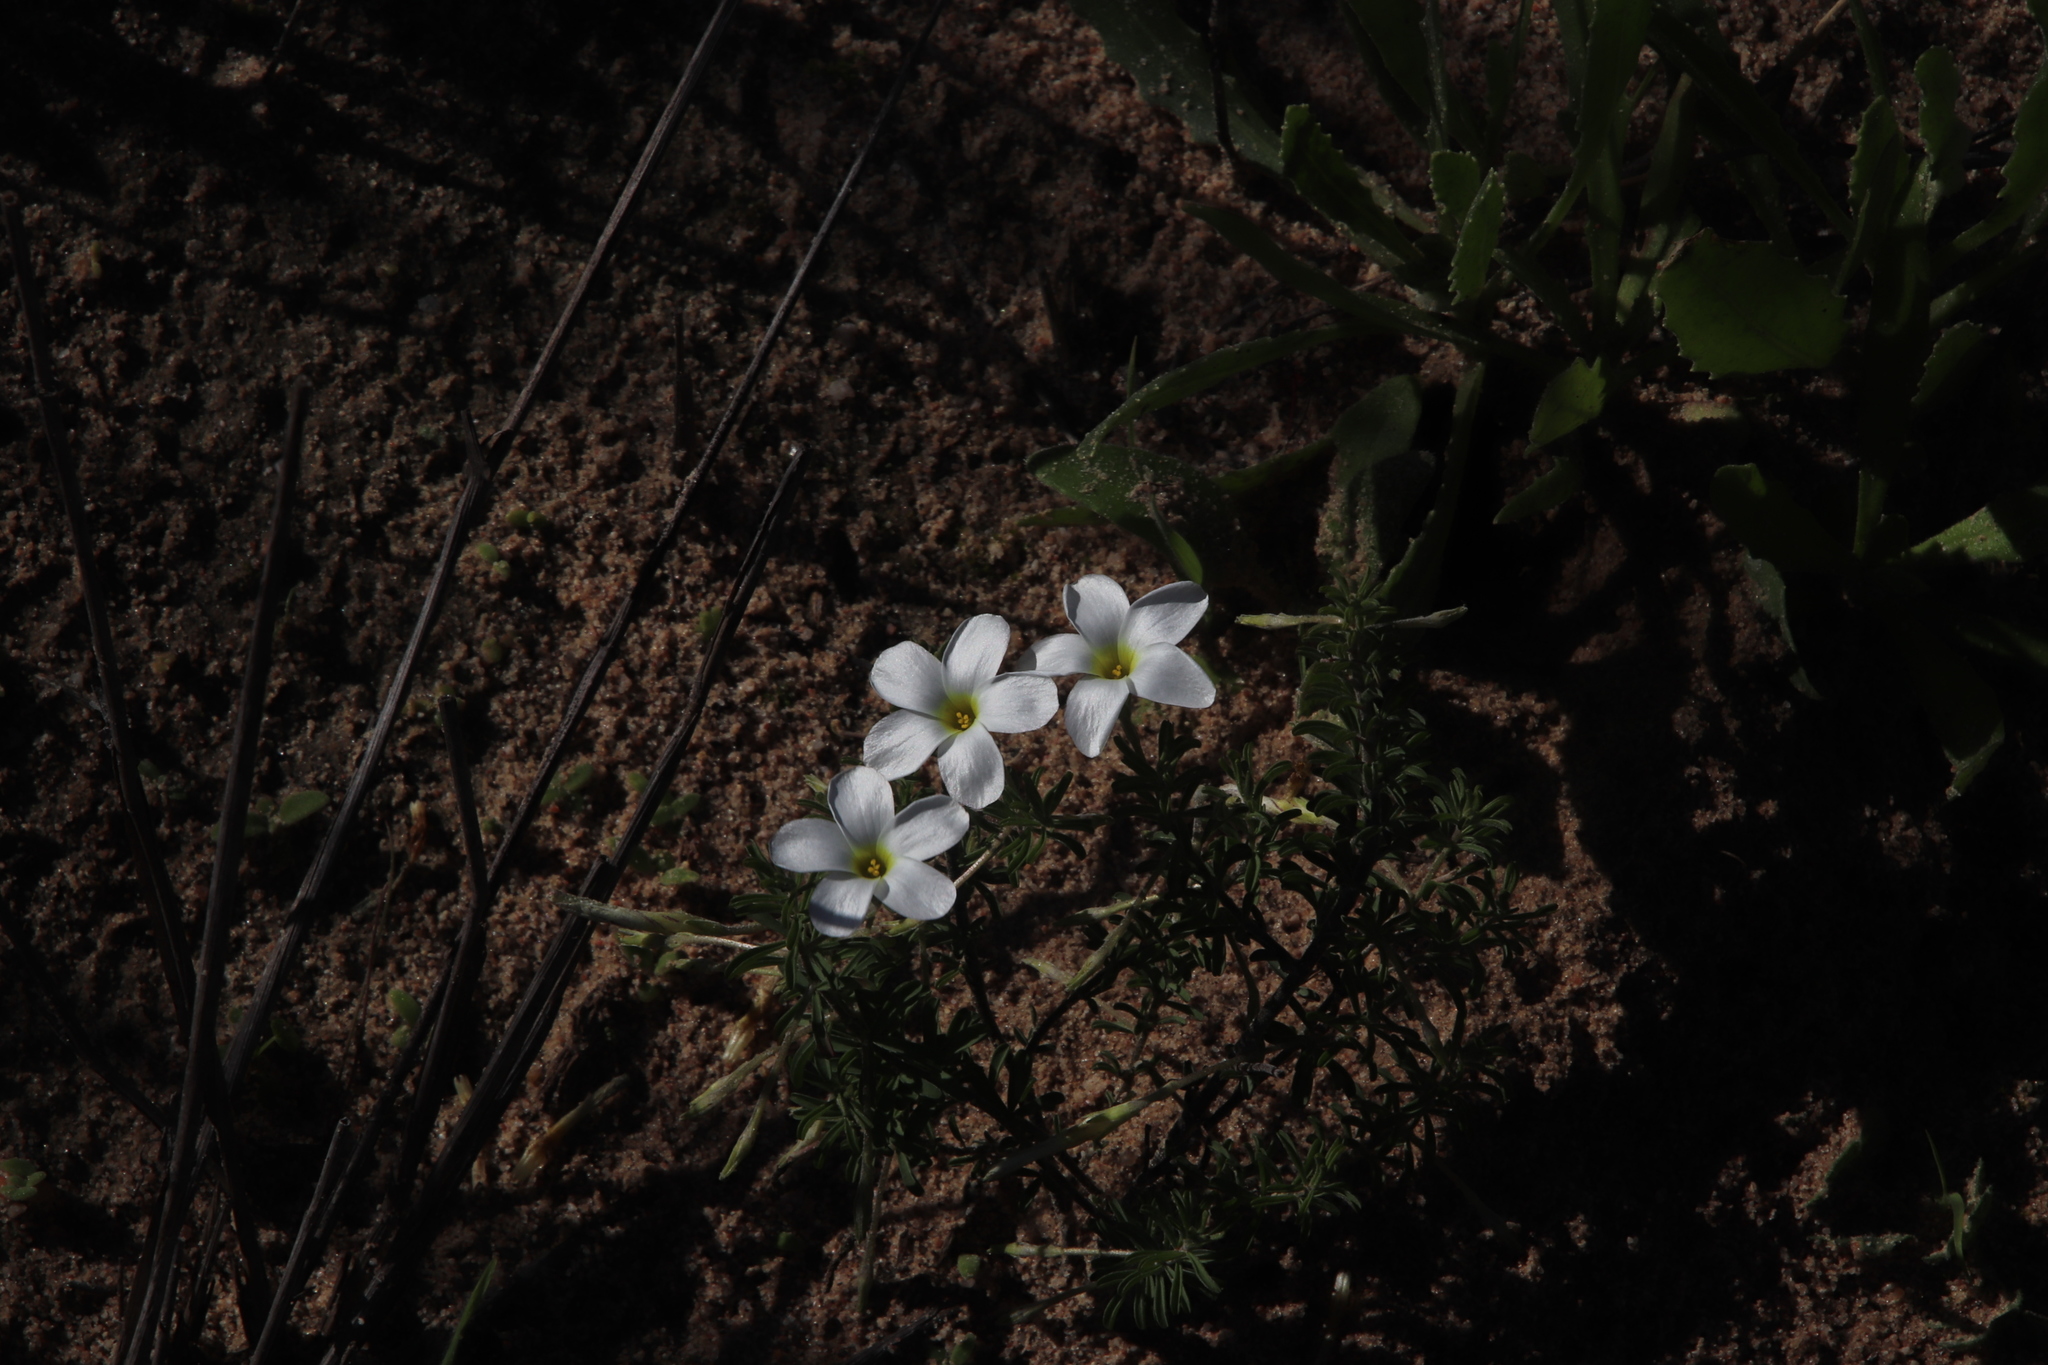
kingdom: Plantae
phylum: Tracheophyta
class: Magnoliopsida
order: Oxalidales
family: Oxalidaceae
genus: Oxalis
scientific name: Oxalis hirta
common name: Tropical woodsorrel
